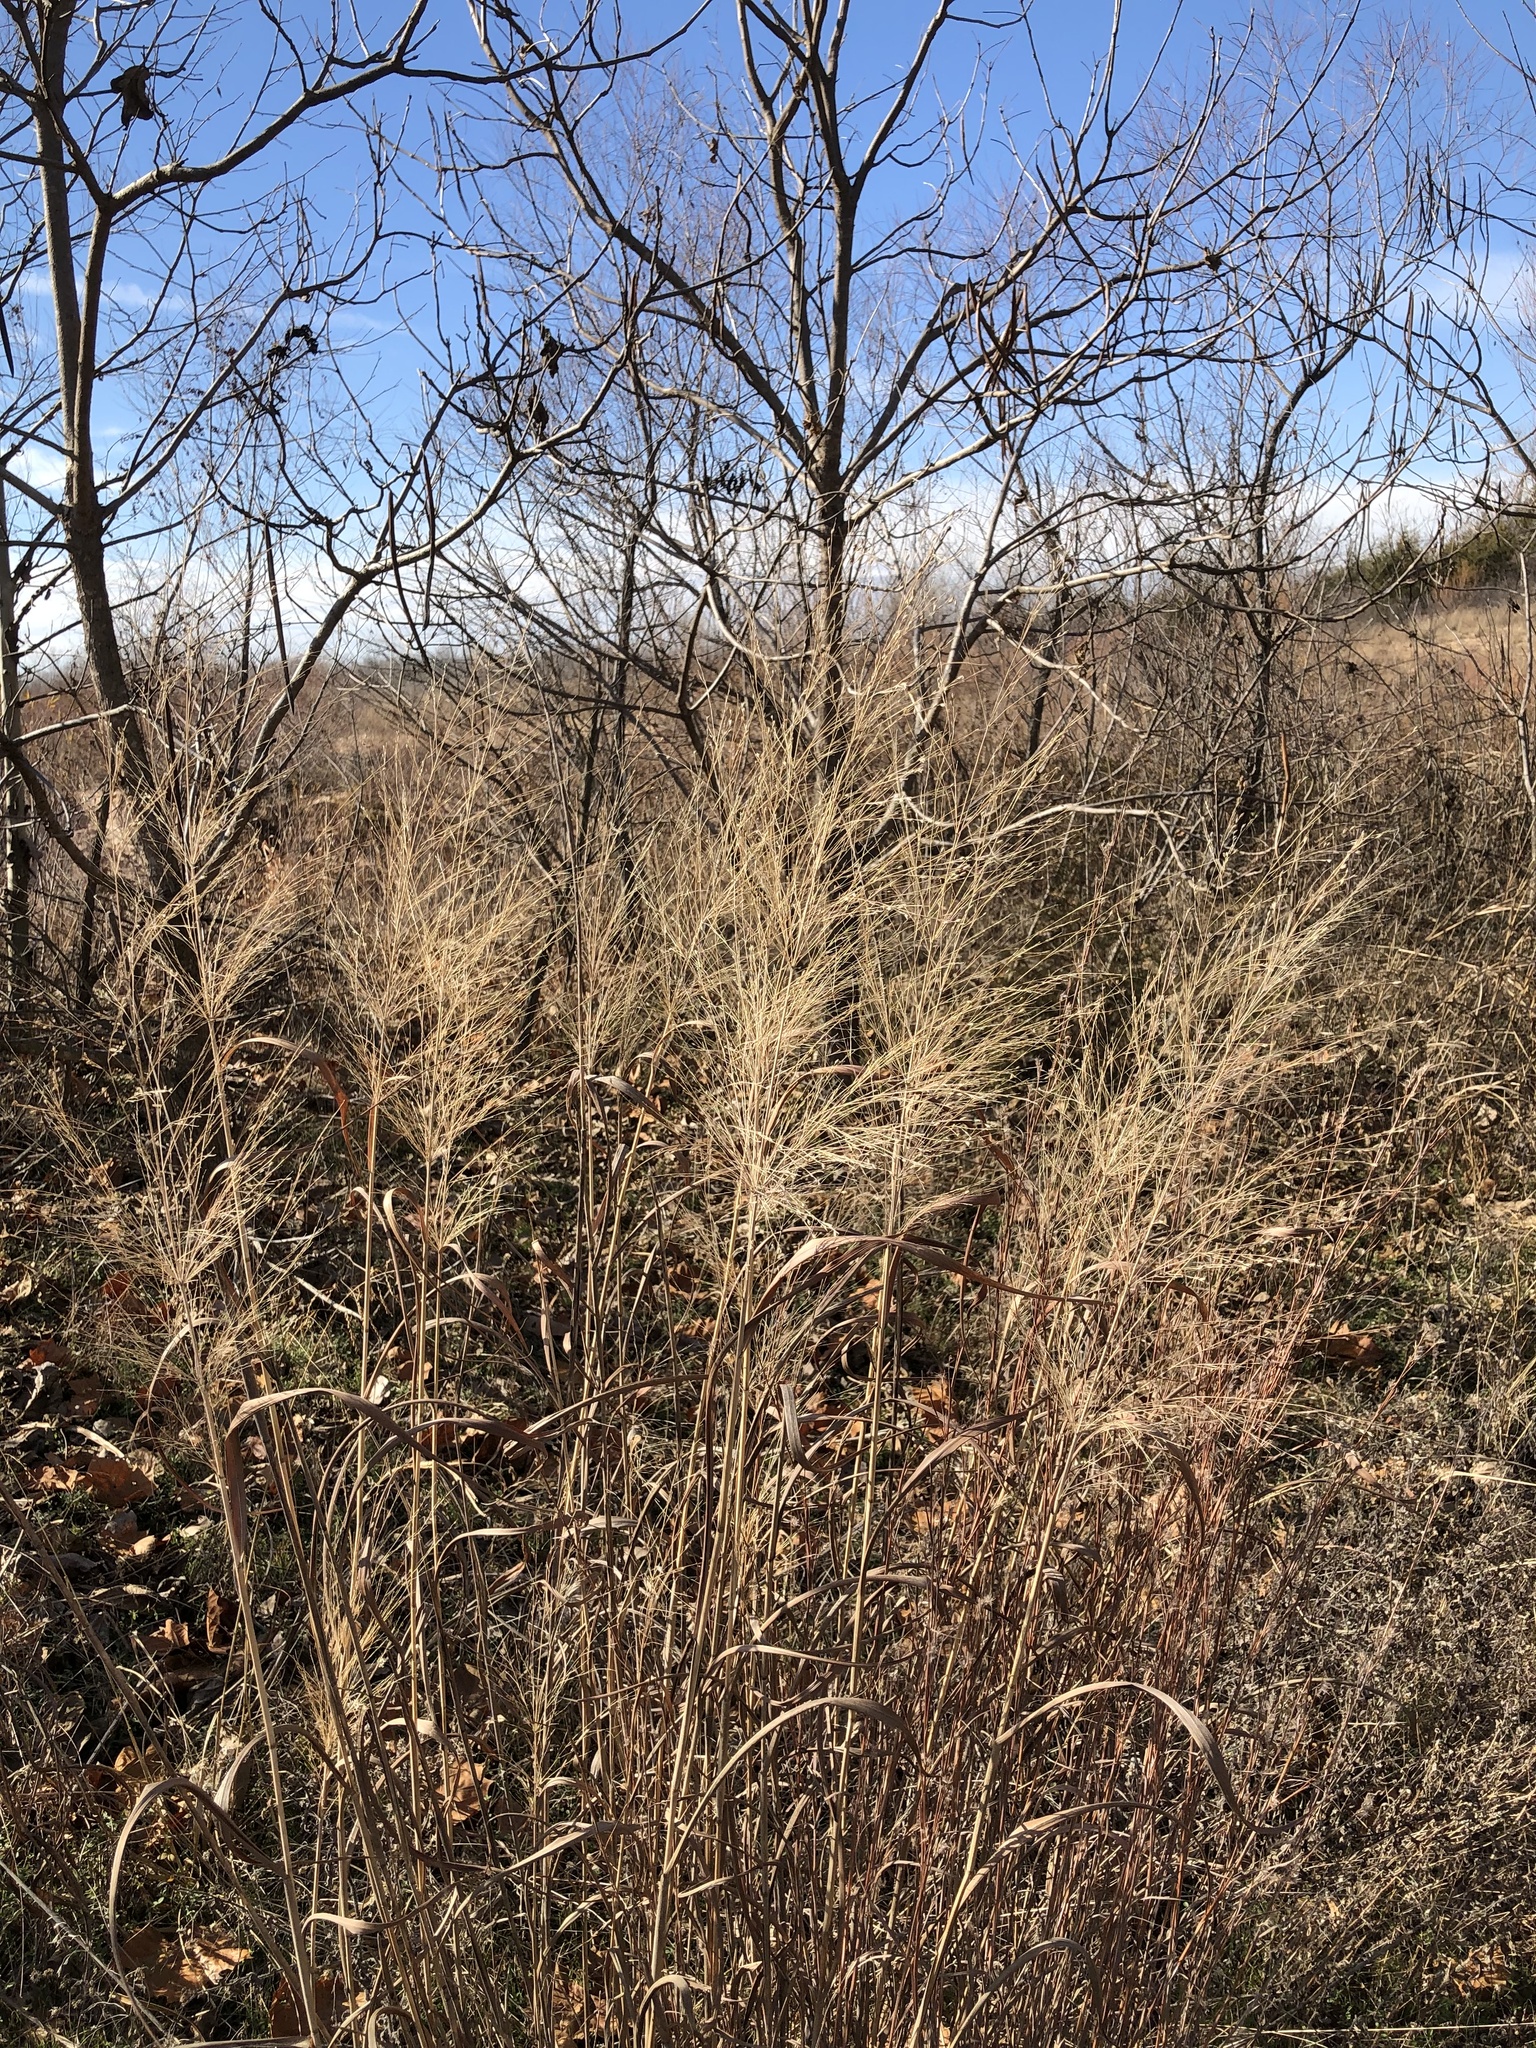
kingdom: Plantae
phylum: Tracheophyta
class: Liliopsida
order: Poales
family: Poaceae
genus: Panicum
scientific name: Panicum virgatum
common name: Switchgrass
